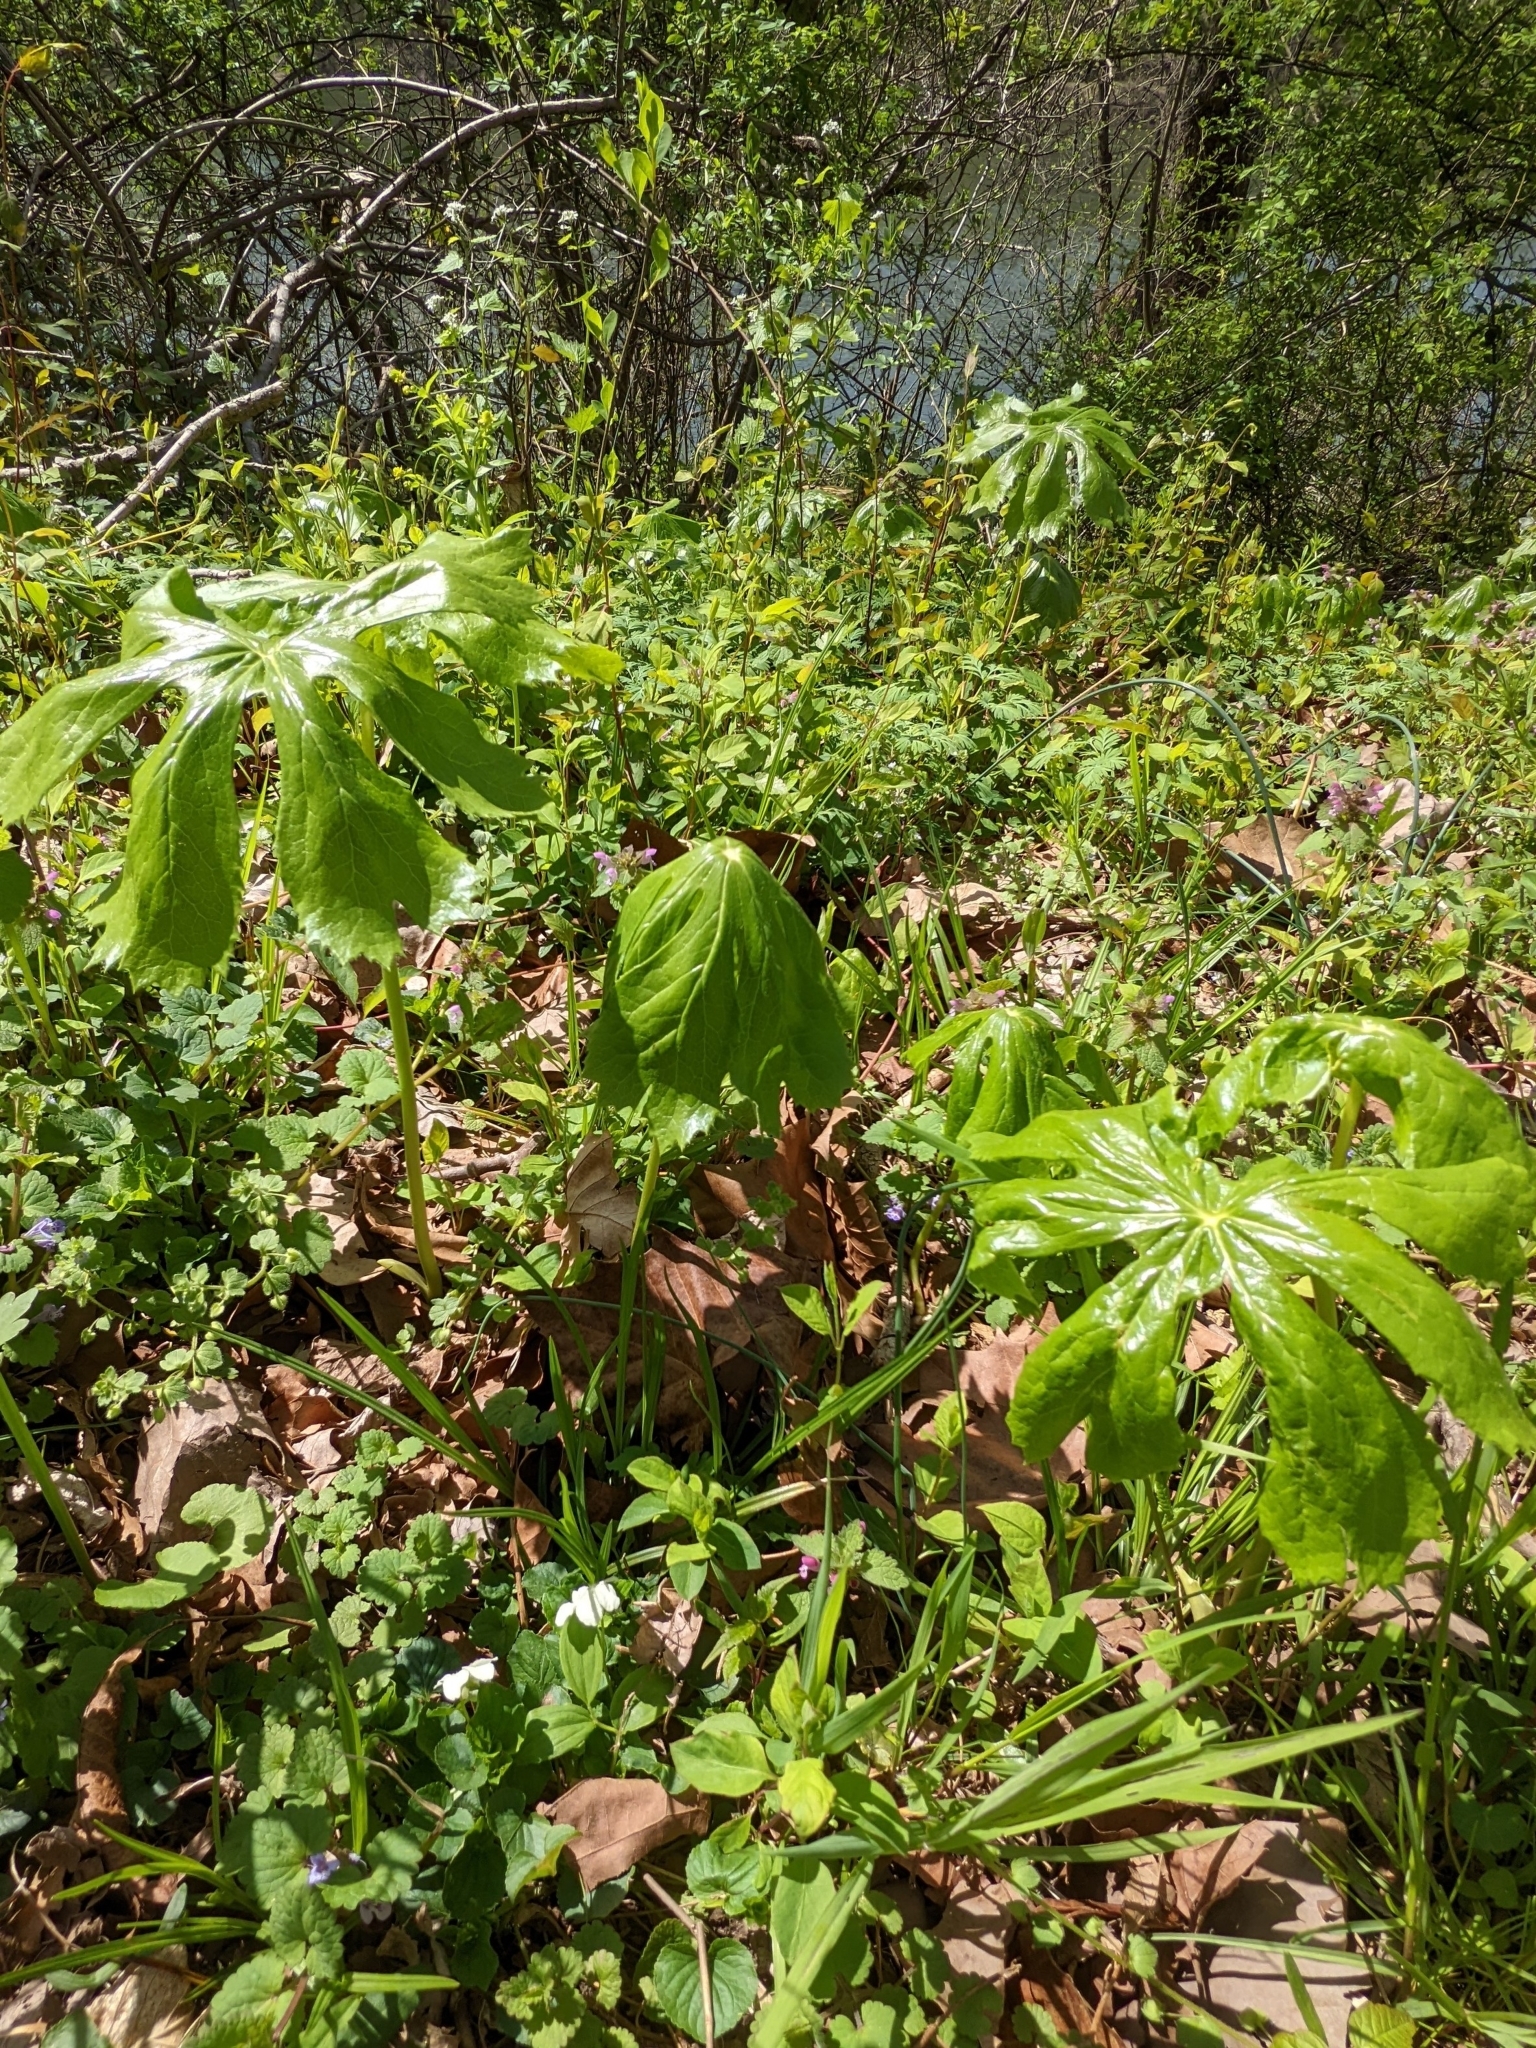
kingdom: Plantae
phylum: Tracheophyta
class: Magnoliopsida
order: Ranunculales
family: Berberidaceae
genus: Podophyllum
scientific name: Podophyllum peltatum
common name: Wild mandrake
